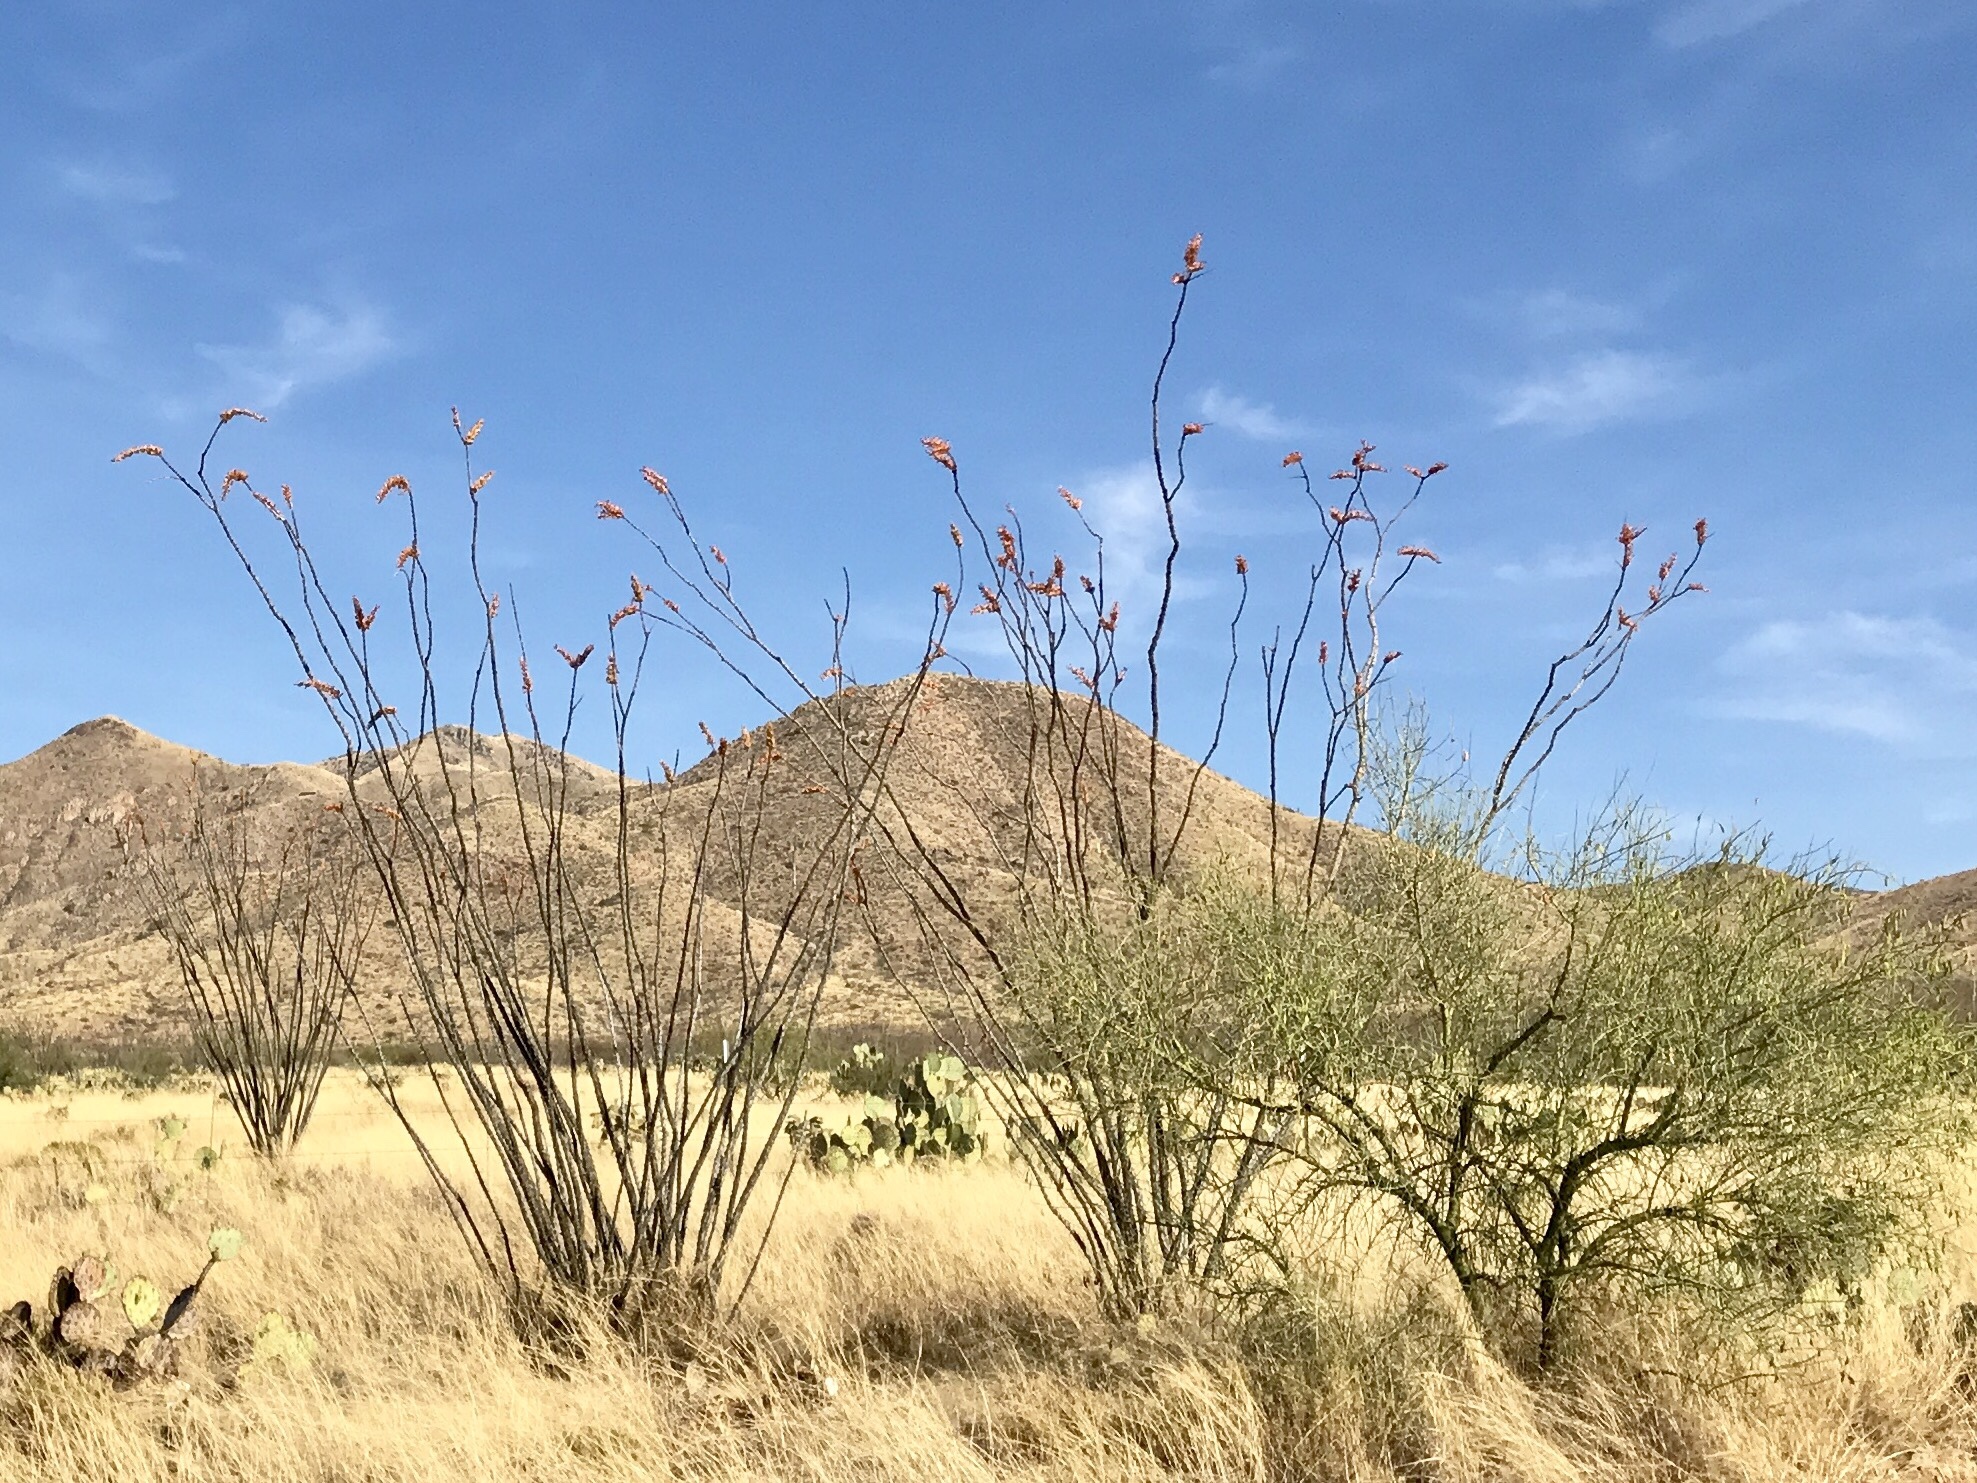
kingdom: Plantae
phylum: Tracheophyta
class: Magnoliopsida
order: Ericales
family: Fouquieriaceae
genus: Fouquieria
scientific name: Fouquieria splendens
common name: Vine-cactus
